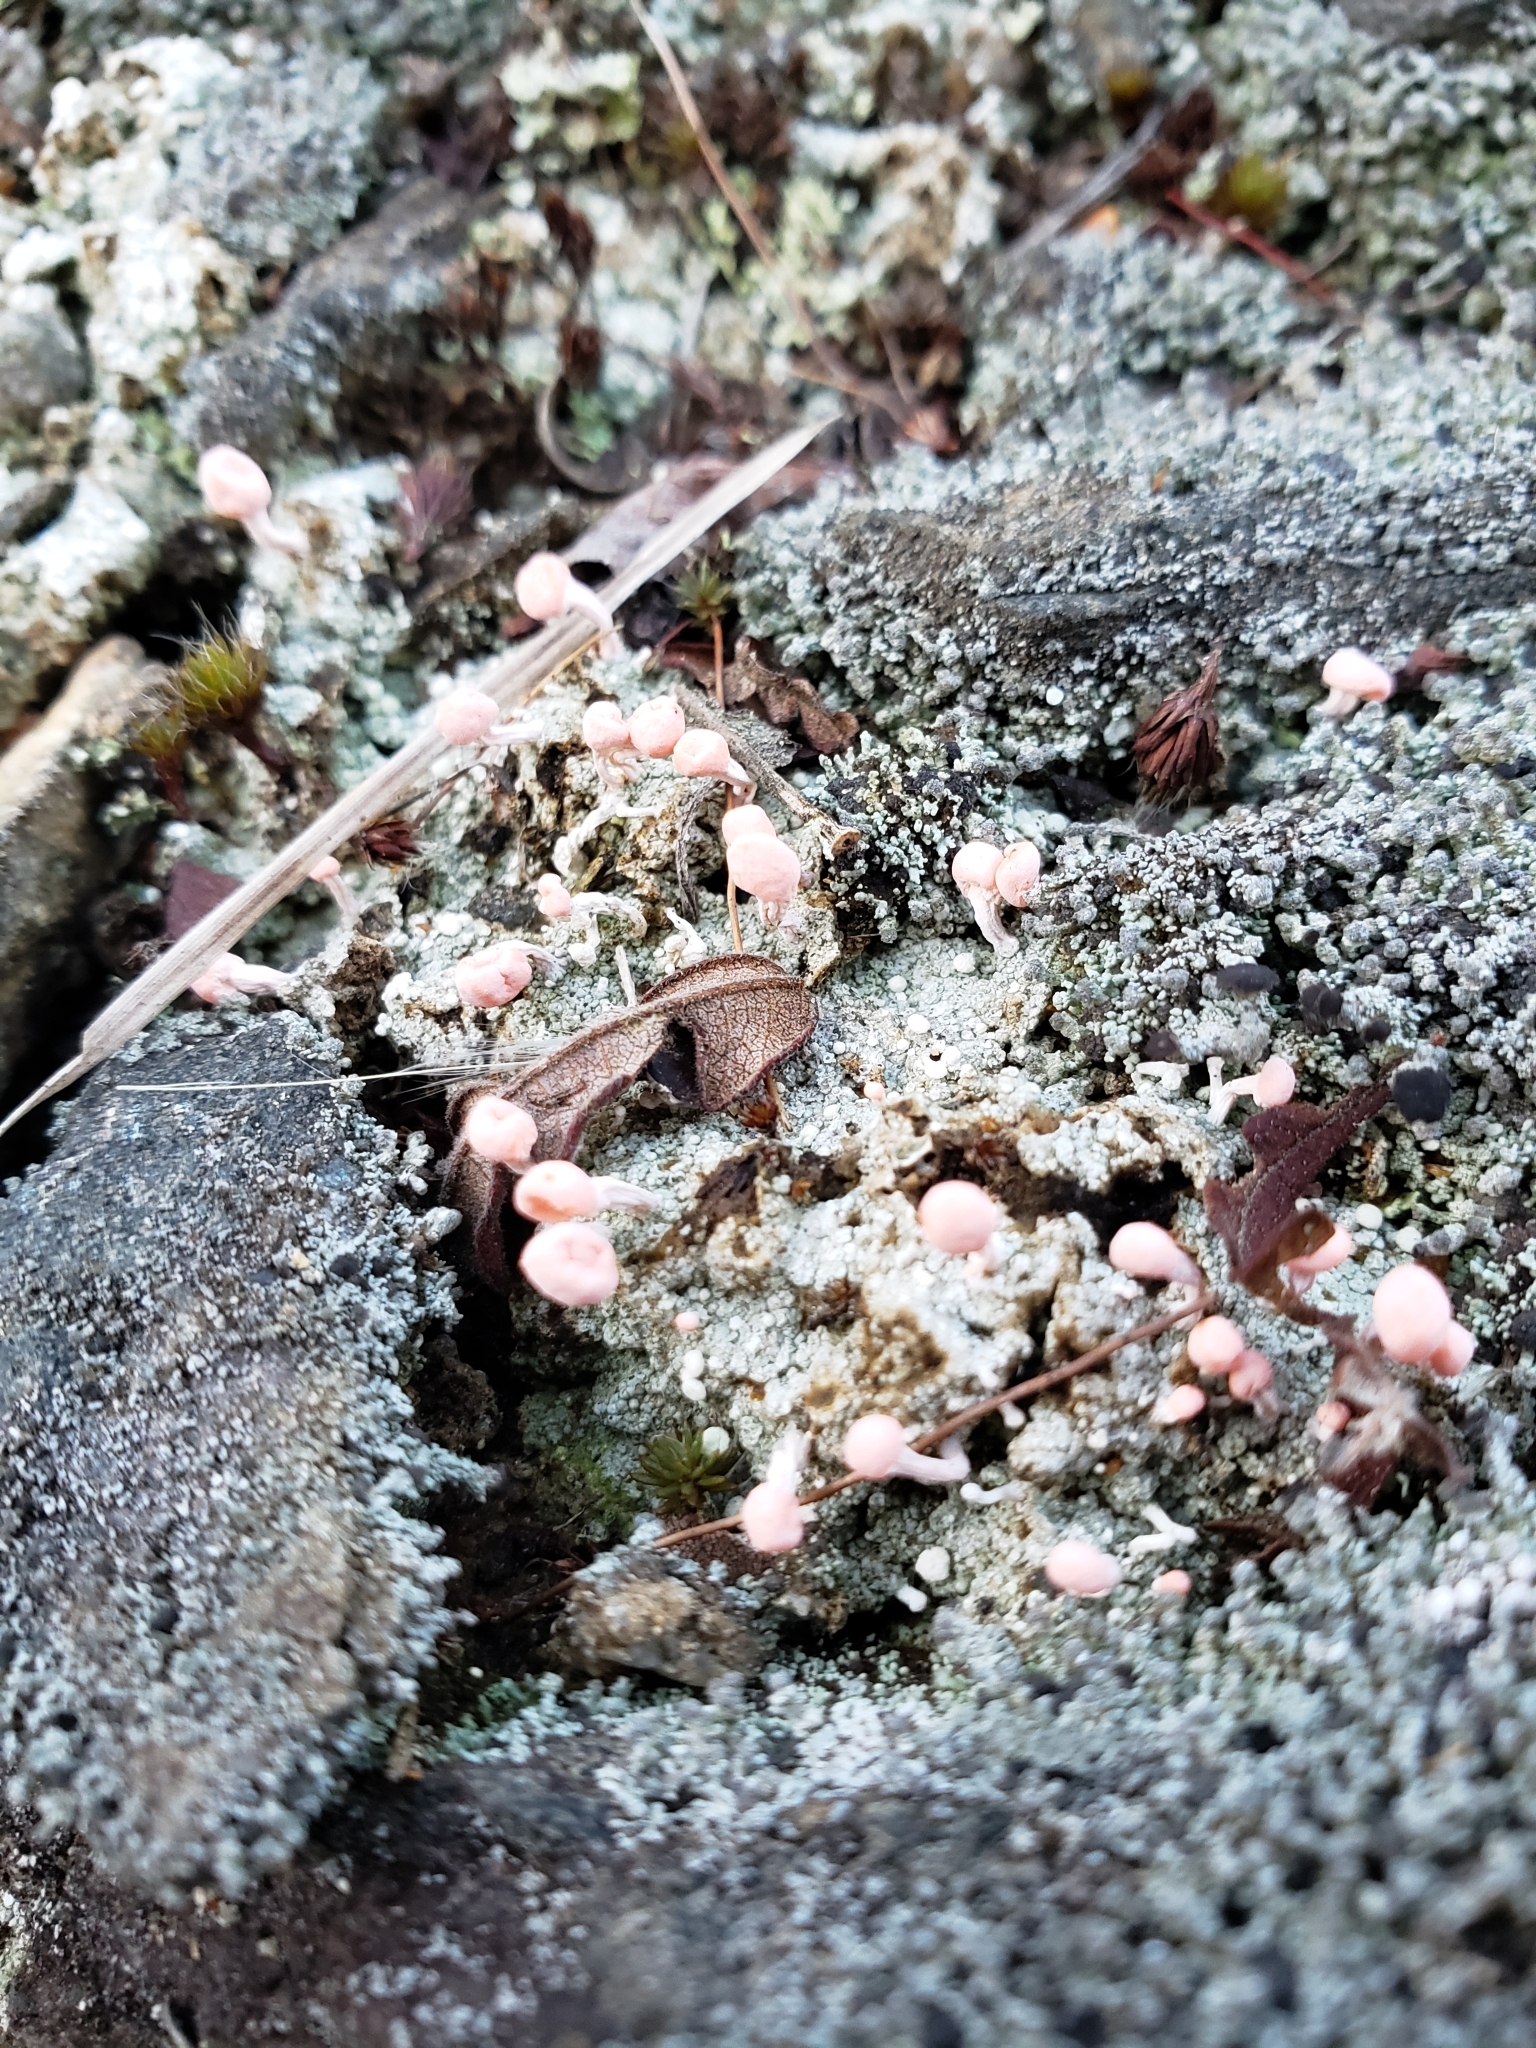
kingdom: Fungi
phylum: Ascomycota
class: Lecanoromycetes
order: Pertusariales
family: Icmadophilaceae
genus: Dibaeis
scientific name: Dibaeis baeomyces
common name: Pink earth lichen
